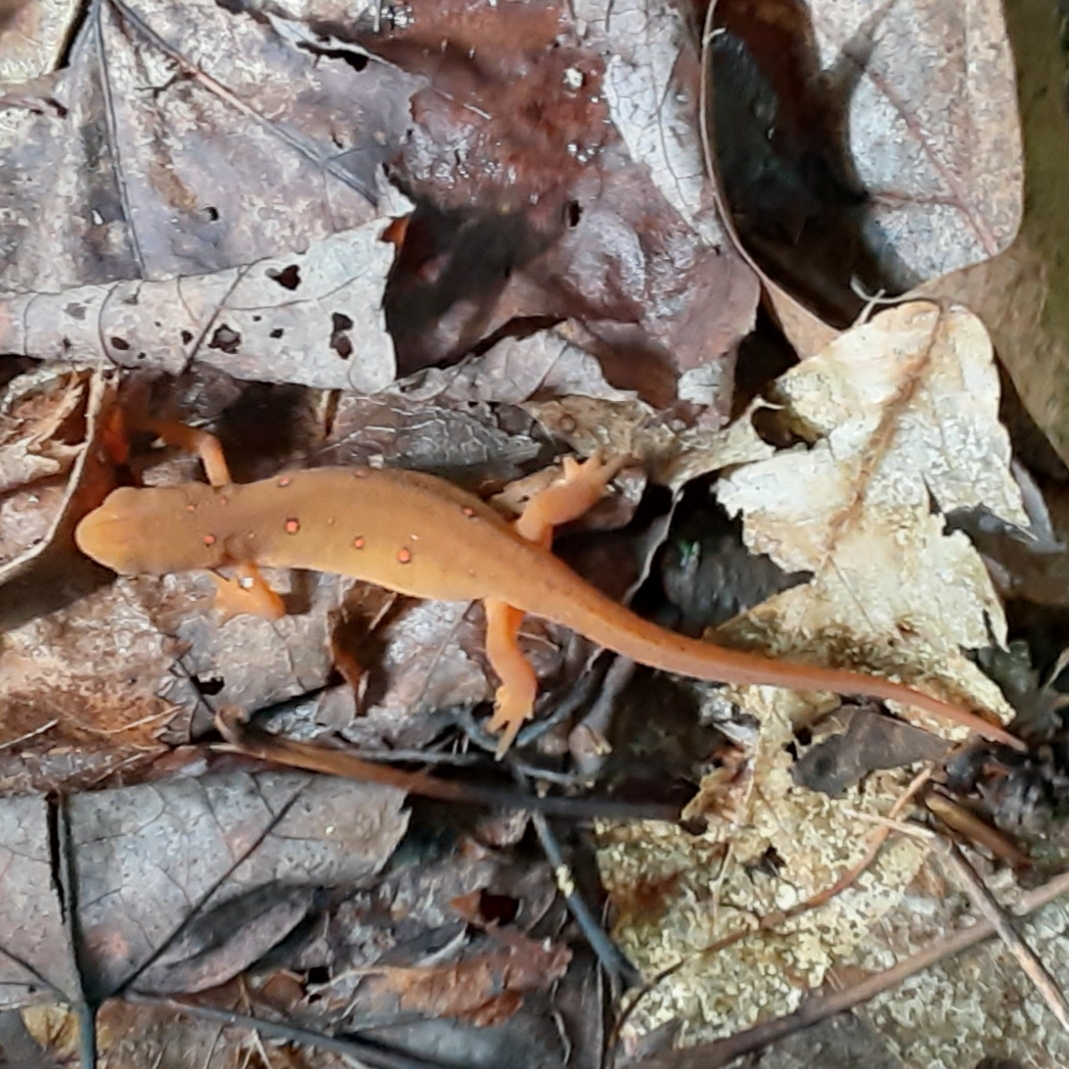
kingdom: Animalia
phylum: Chordata
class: Amphibia
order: Caudata
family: Salamandridae
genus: Notophthalmus
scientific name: Notophthalmus viridescens
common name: Eastern newt
